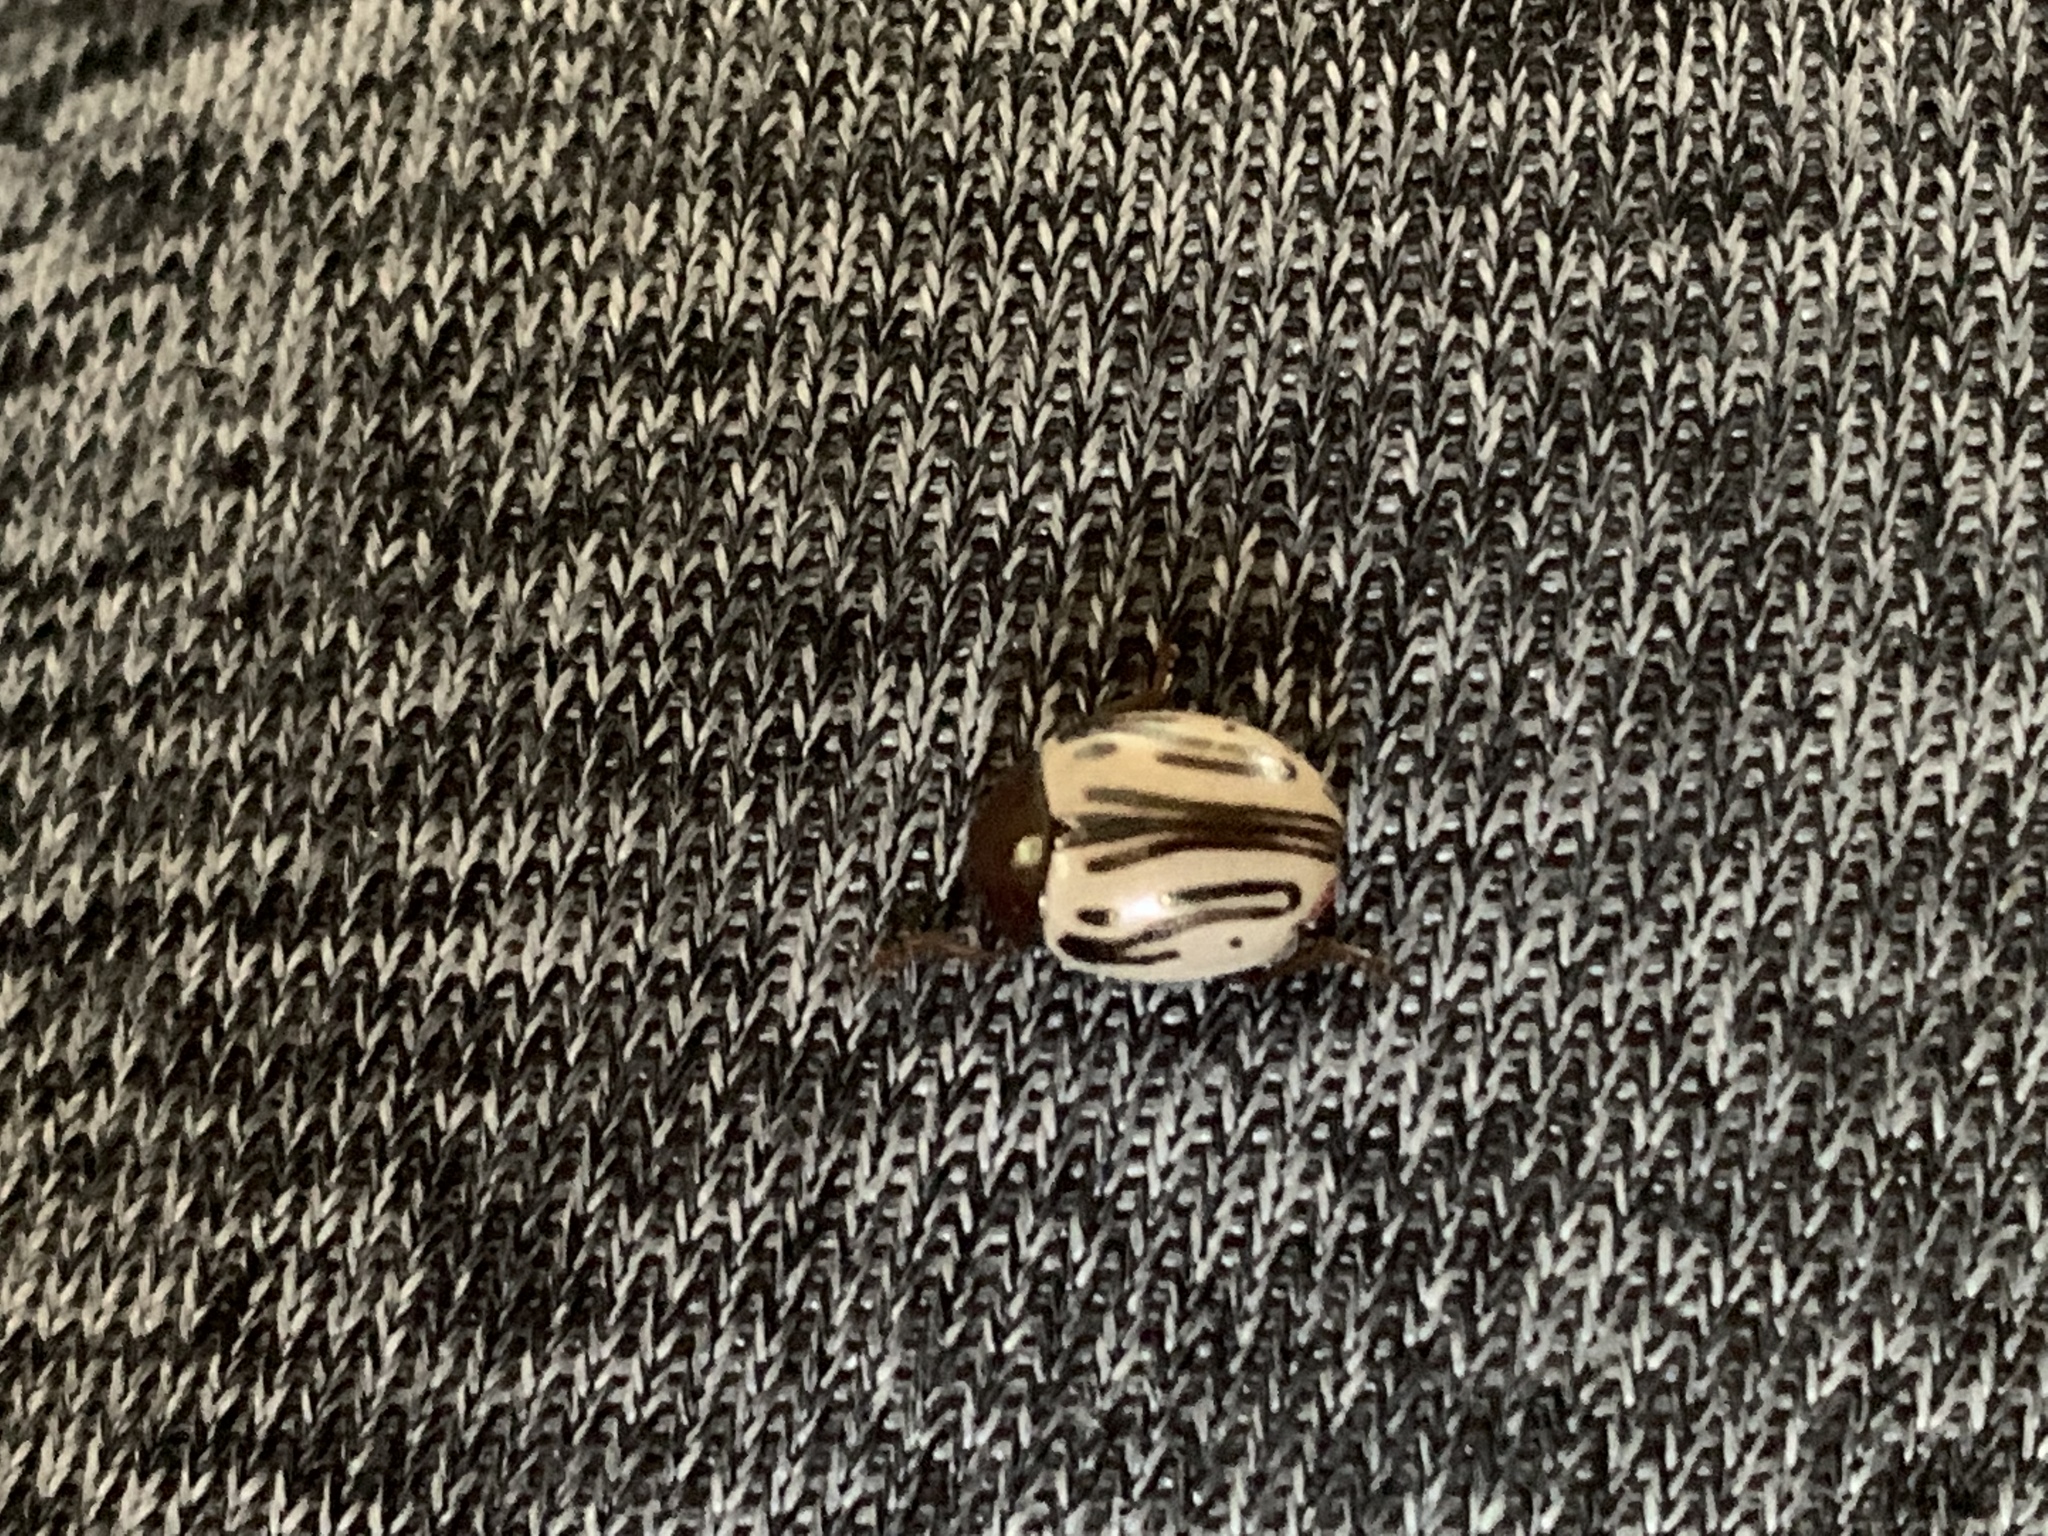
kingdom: Animalia
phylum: Arthropoda
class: Insecta
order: Coleoptera
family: Chrysomelidae
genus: Calligrapha
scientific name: Calligrapha
